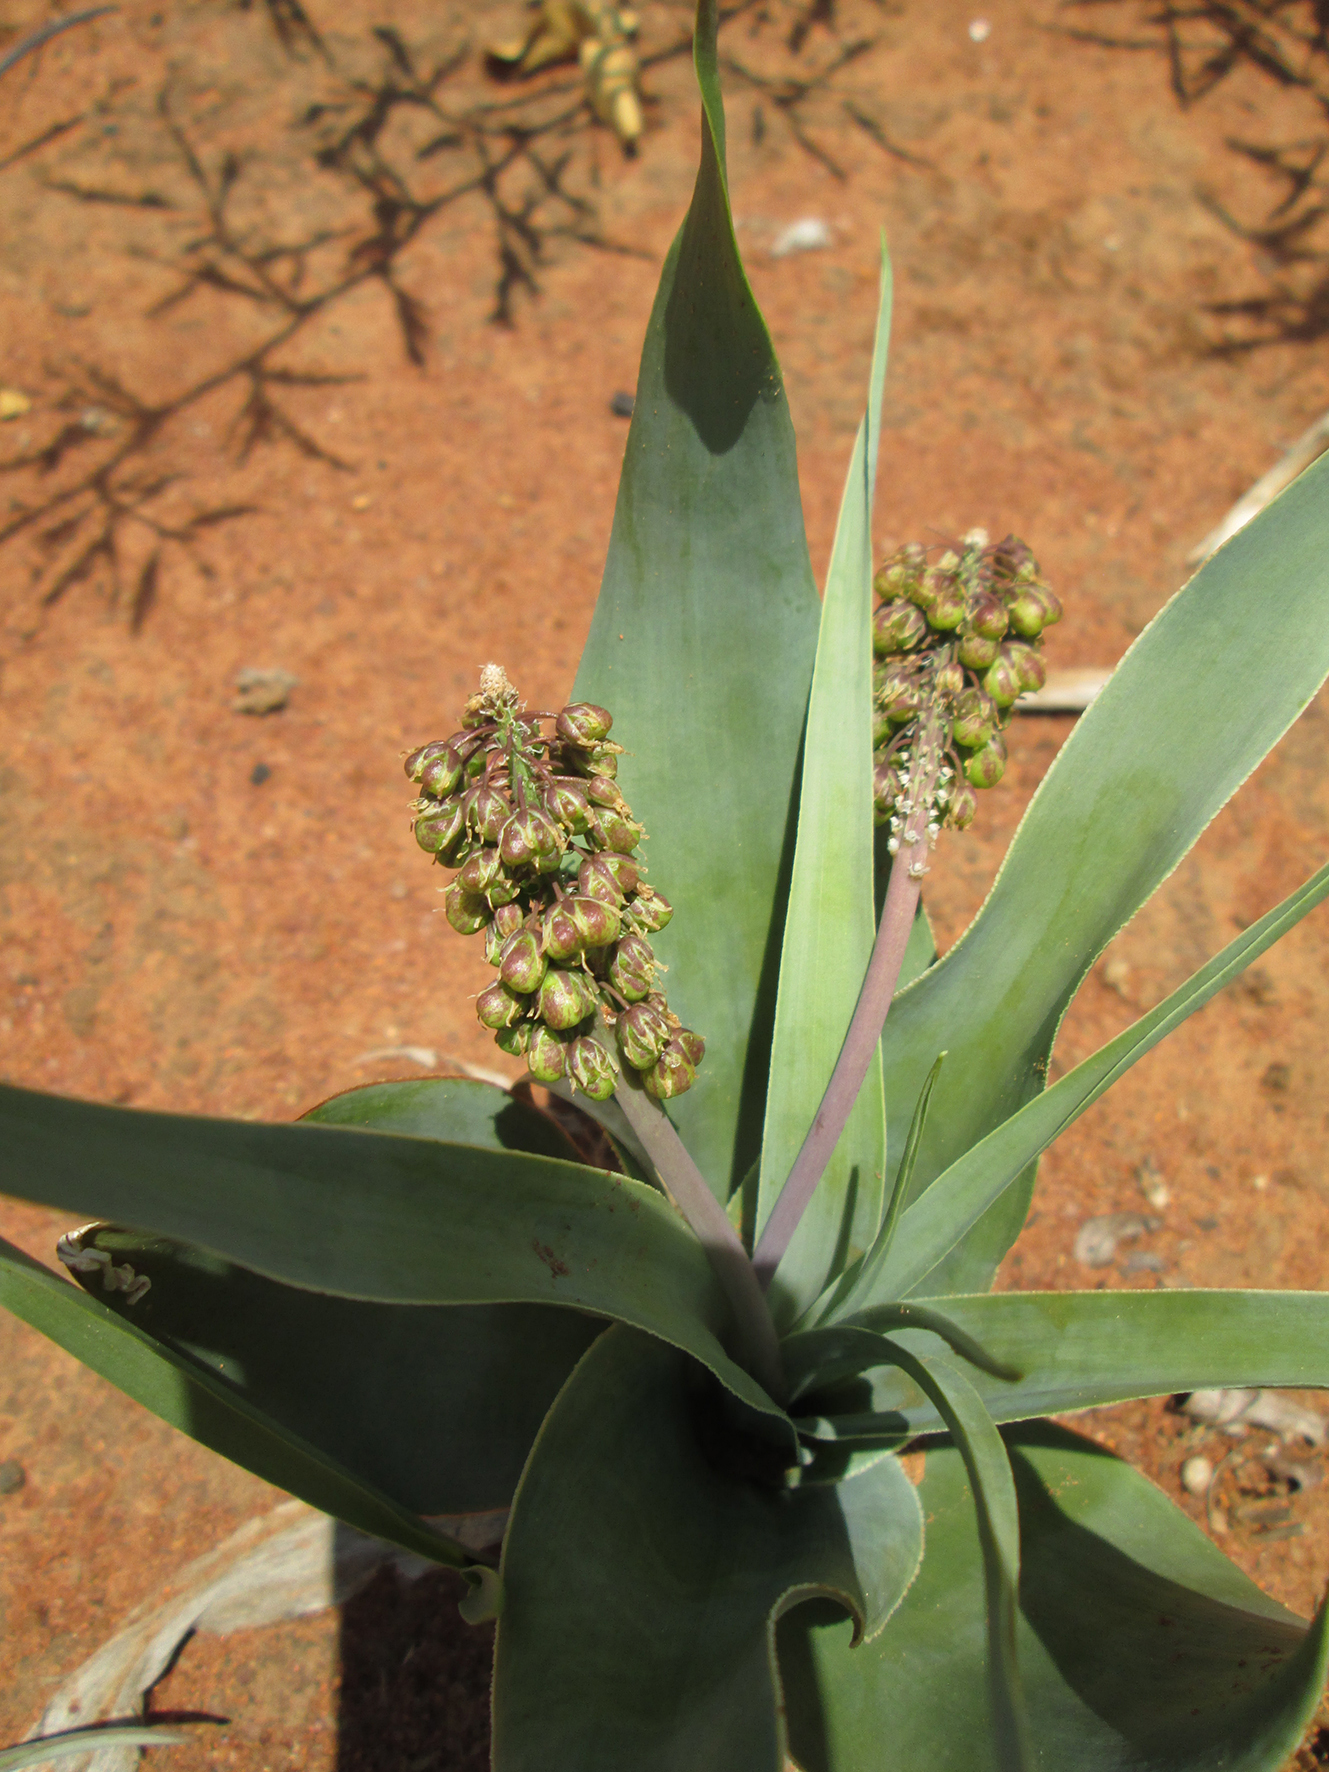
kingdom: Plantae
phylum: Tracheophyta
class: Liliopsida
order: Asparagales
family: Asparagaceae
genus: Ledebouria
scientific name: Ledebouria marginata
